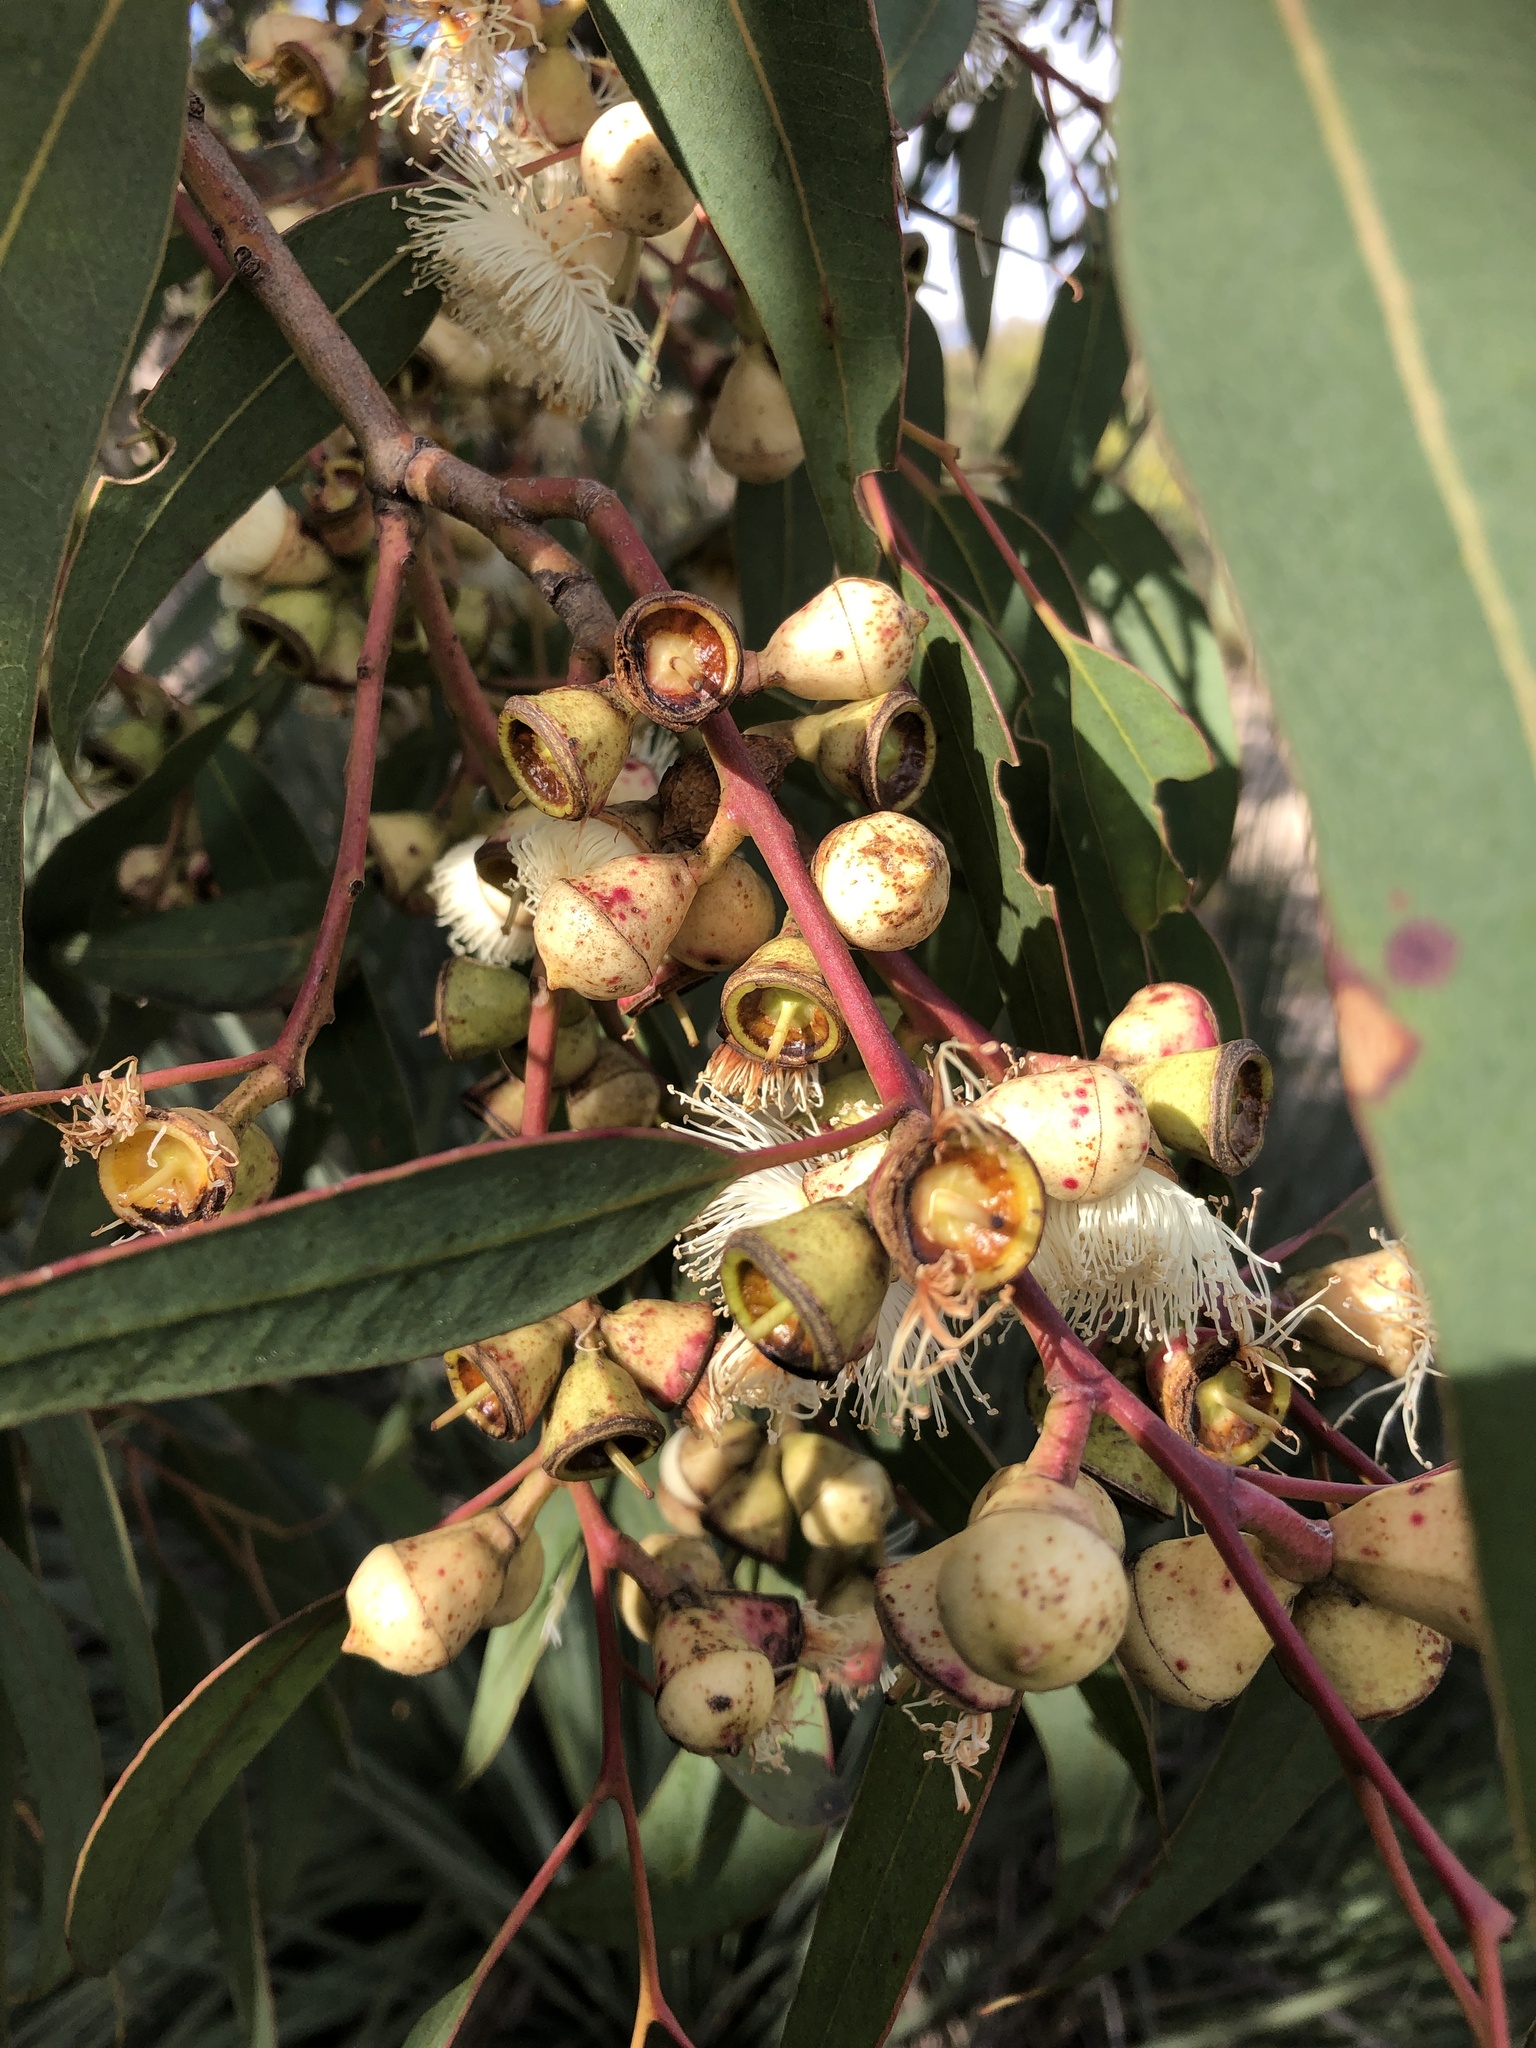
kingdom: Plantae
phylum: Tracheophyta
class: Magnoliopsida
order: Myrtales
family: Myrtaceae
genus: Eucalyptus
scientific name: Eucalyptus cosmophylla
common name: Bog-gum
